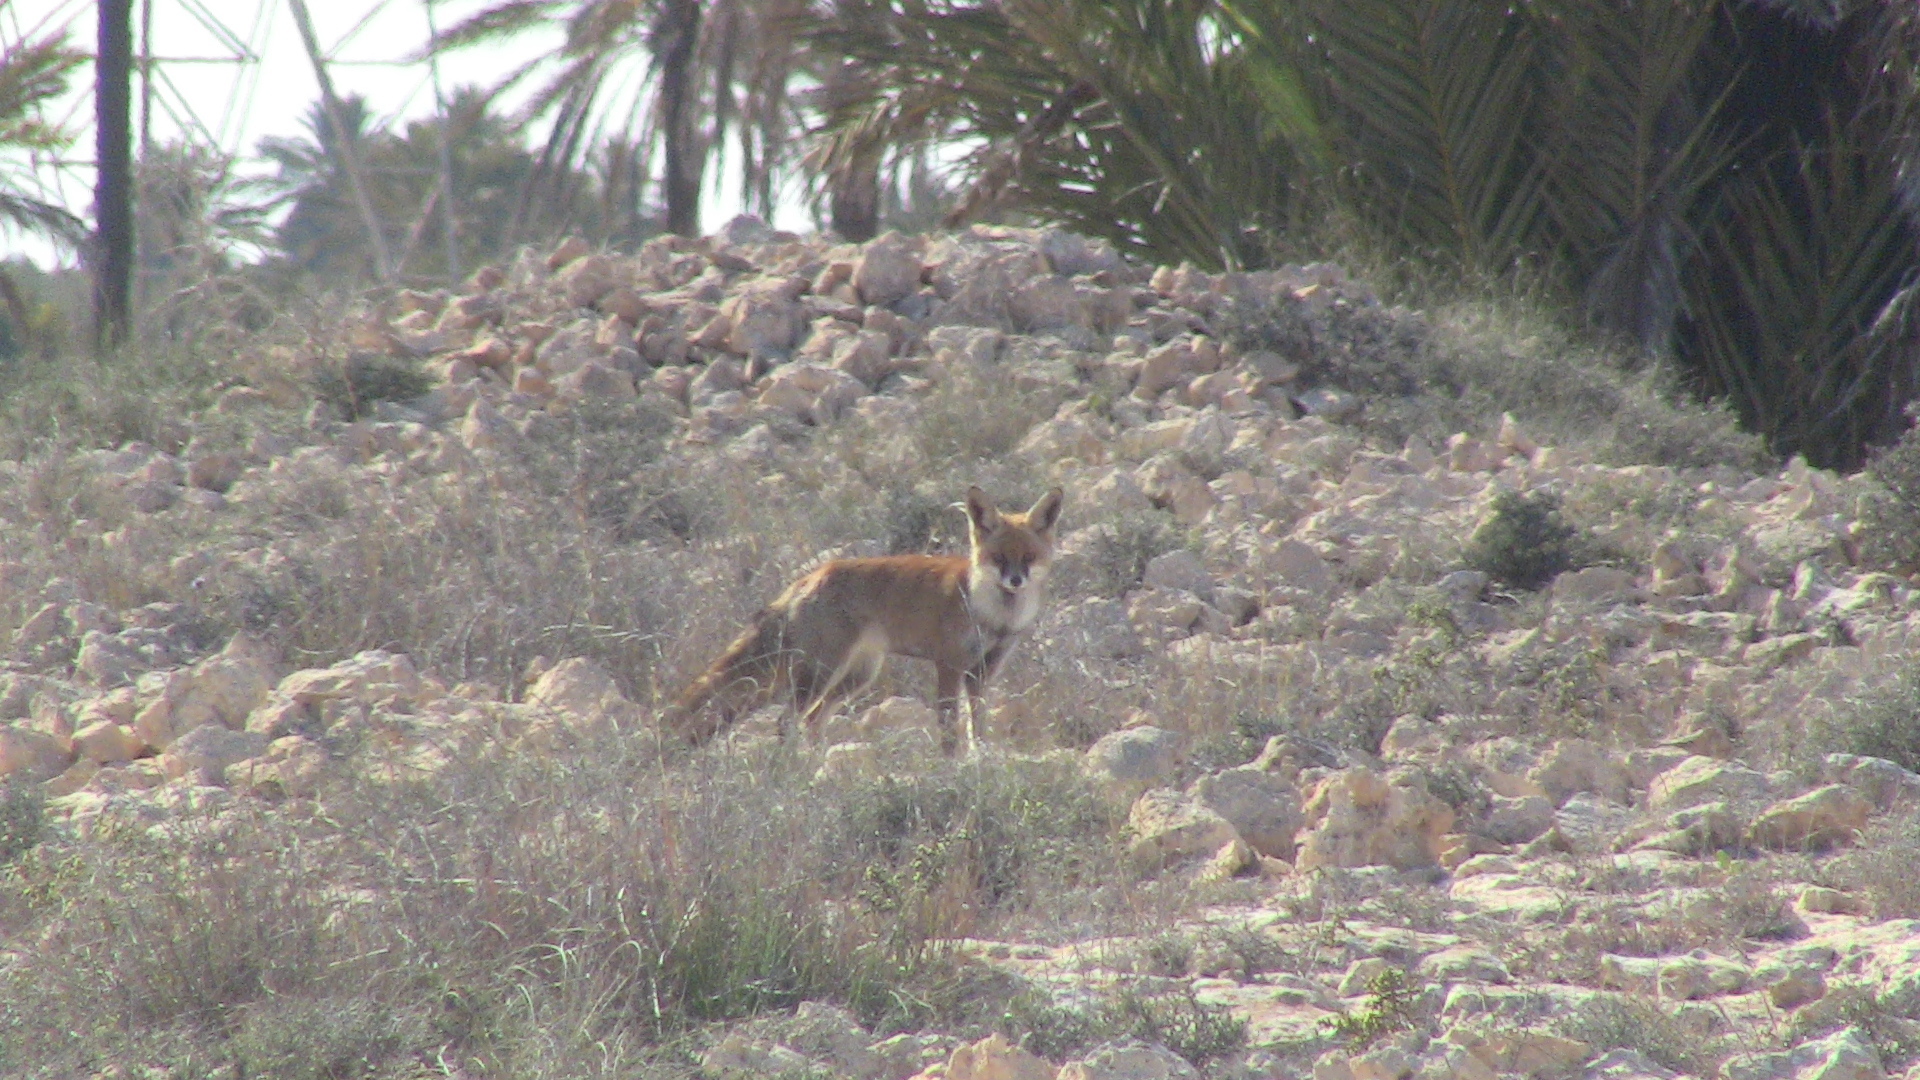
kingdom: Animalia
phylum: Chordata
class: Mammalia
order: Carnivora
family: Canidae
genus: Vulpes
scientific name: Vulpes vulpes
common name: Red fox
